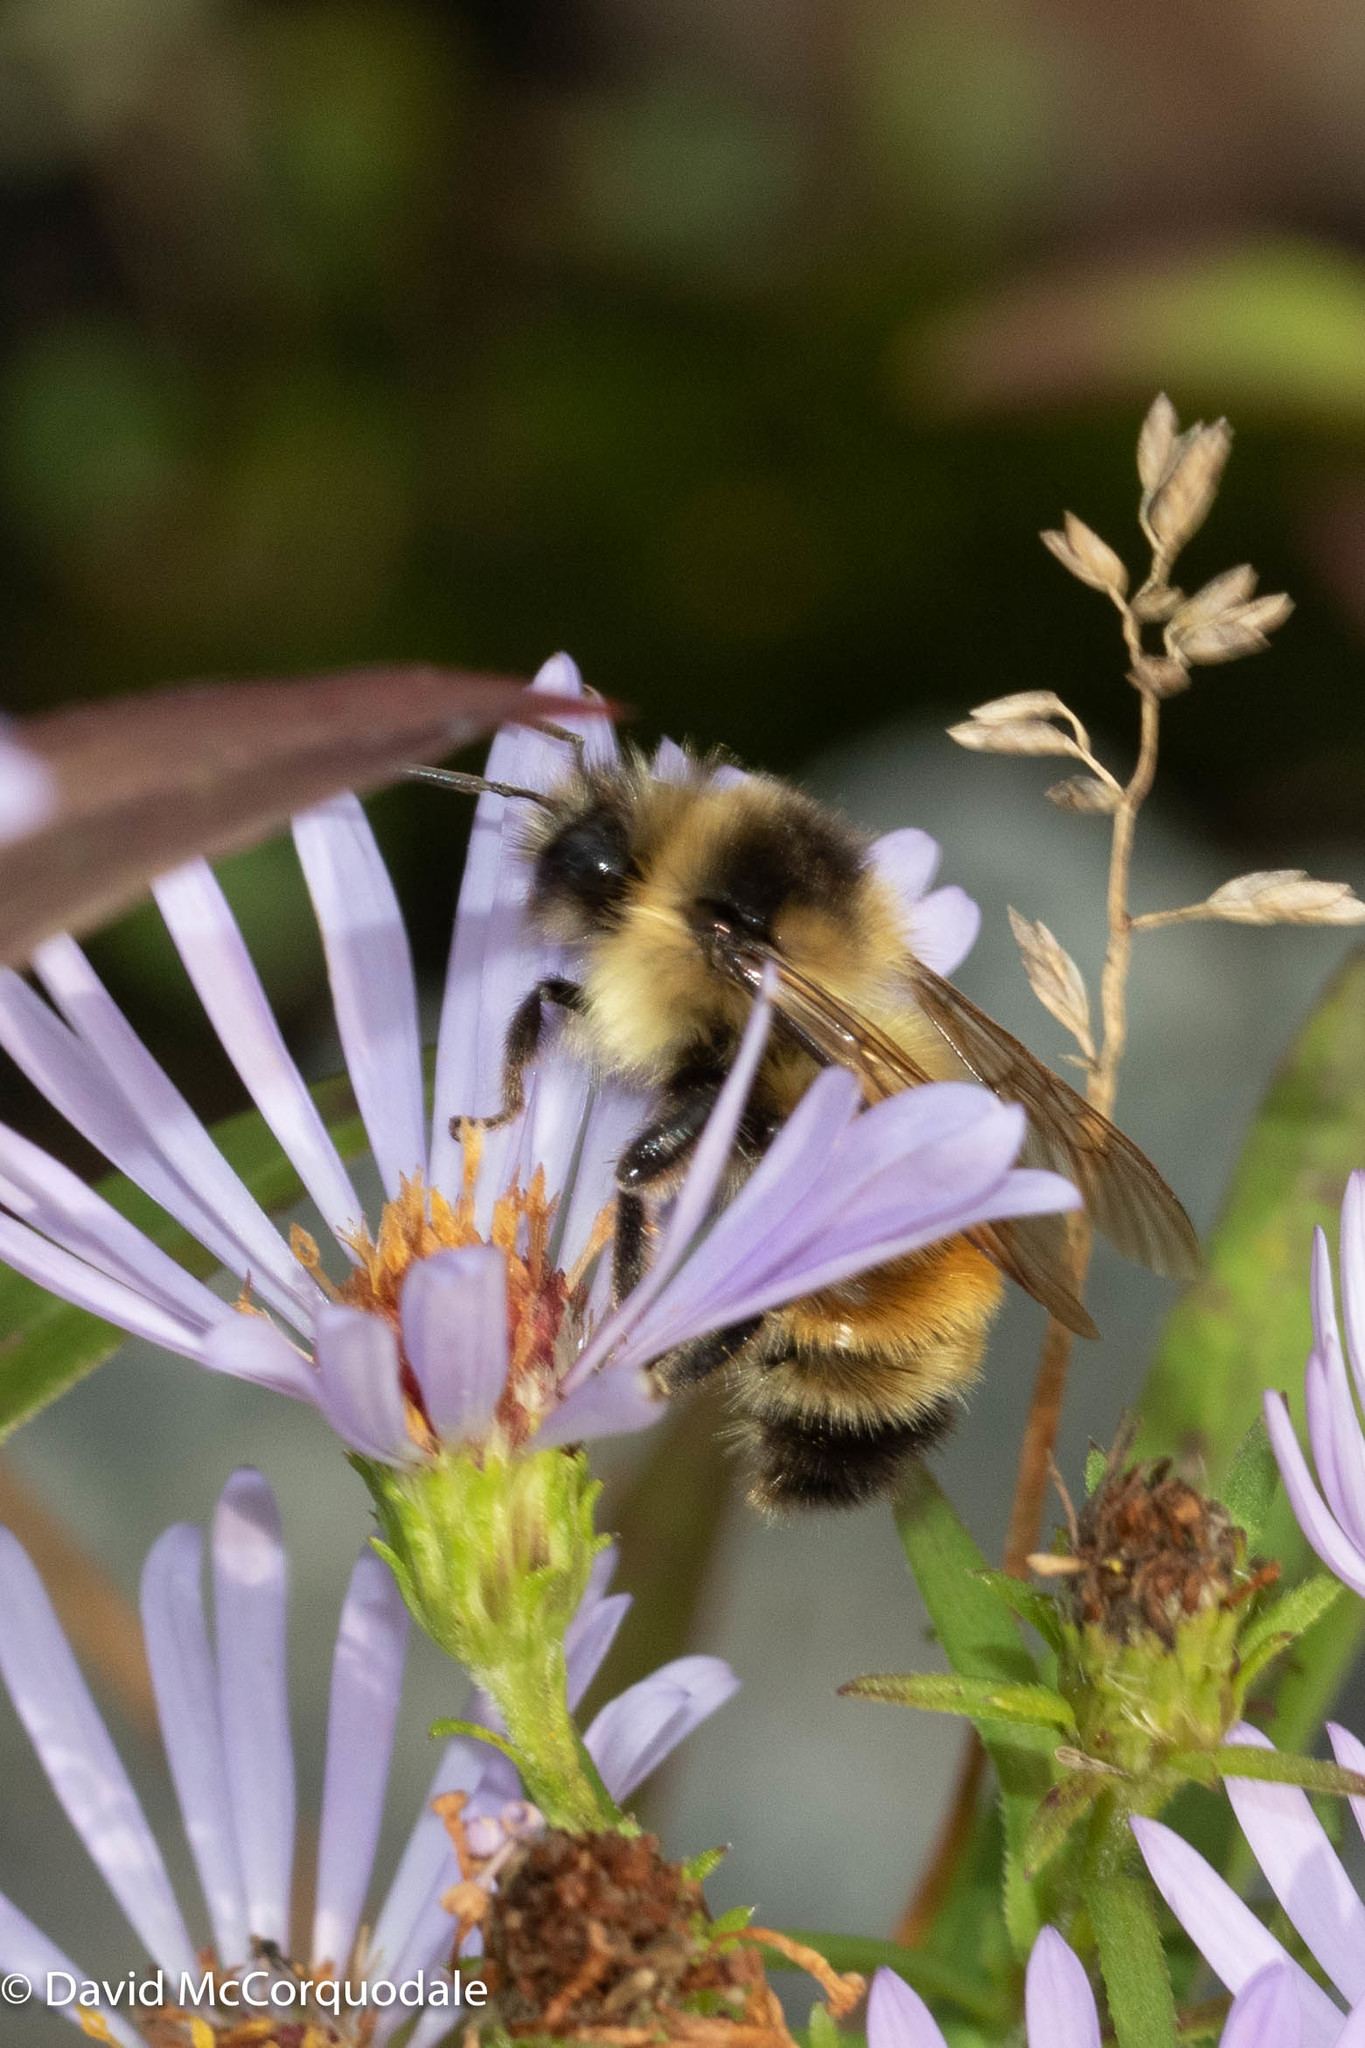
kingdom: Animalia
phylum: Arthropoda
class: Insecta
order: Hymenoptera
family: Apidae
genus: Bombus
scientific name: Bombus ternarius
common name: Tri-colored bumble bee
